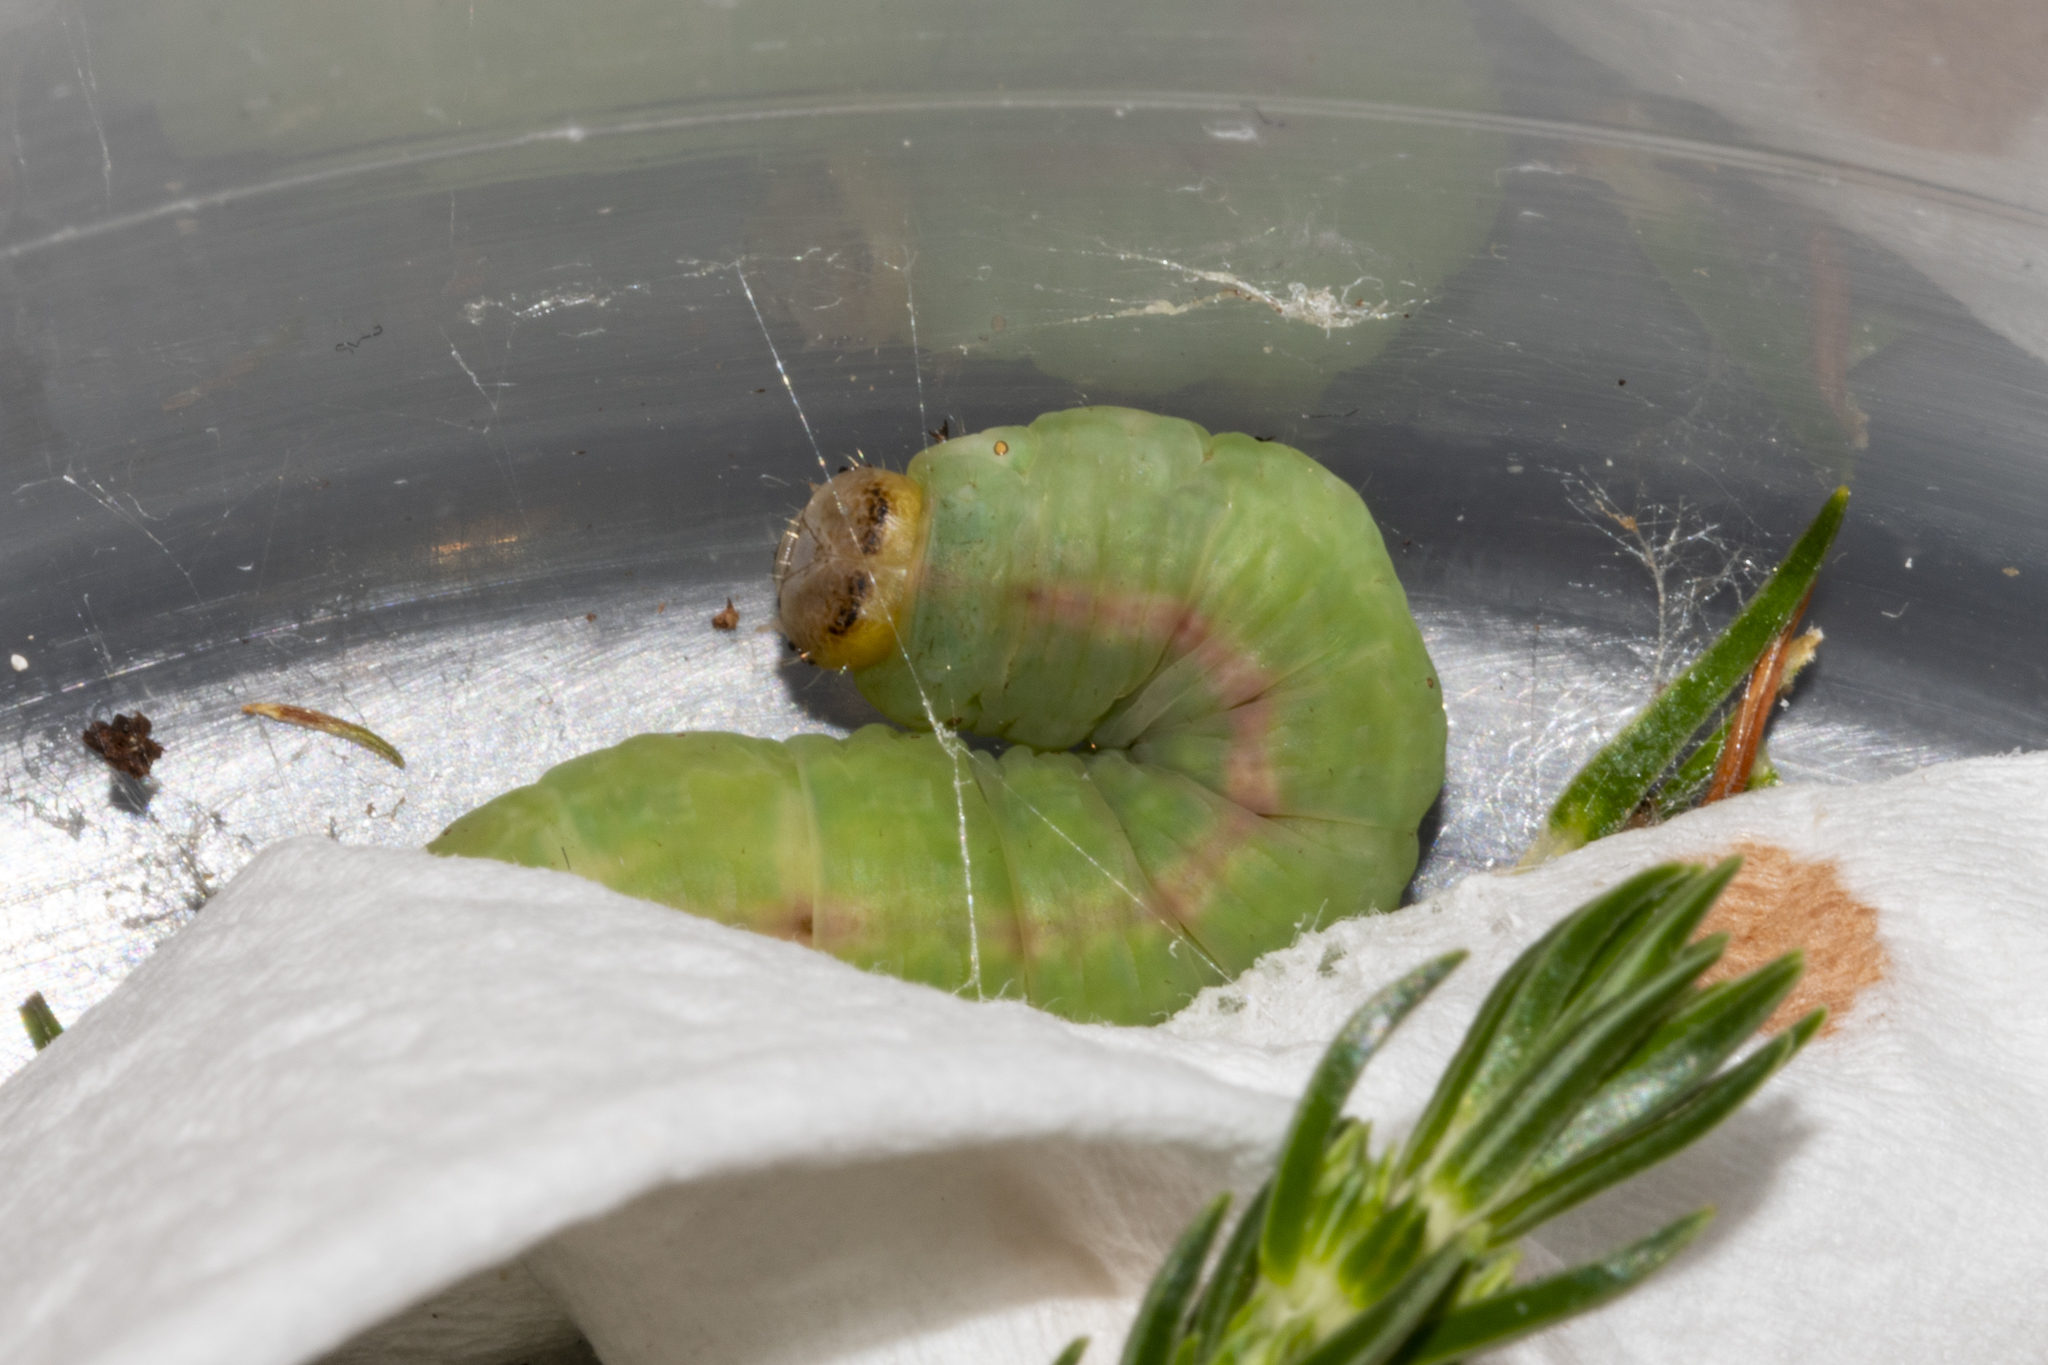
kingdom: Animalia
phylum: Arthropoda
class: Insecta
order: Lepidoptera
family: Geometridae
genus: Panhyperochia
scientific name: Panhyperochia ingens
